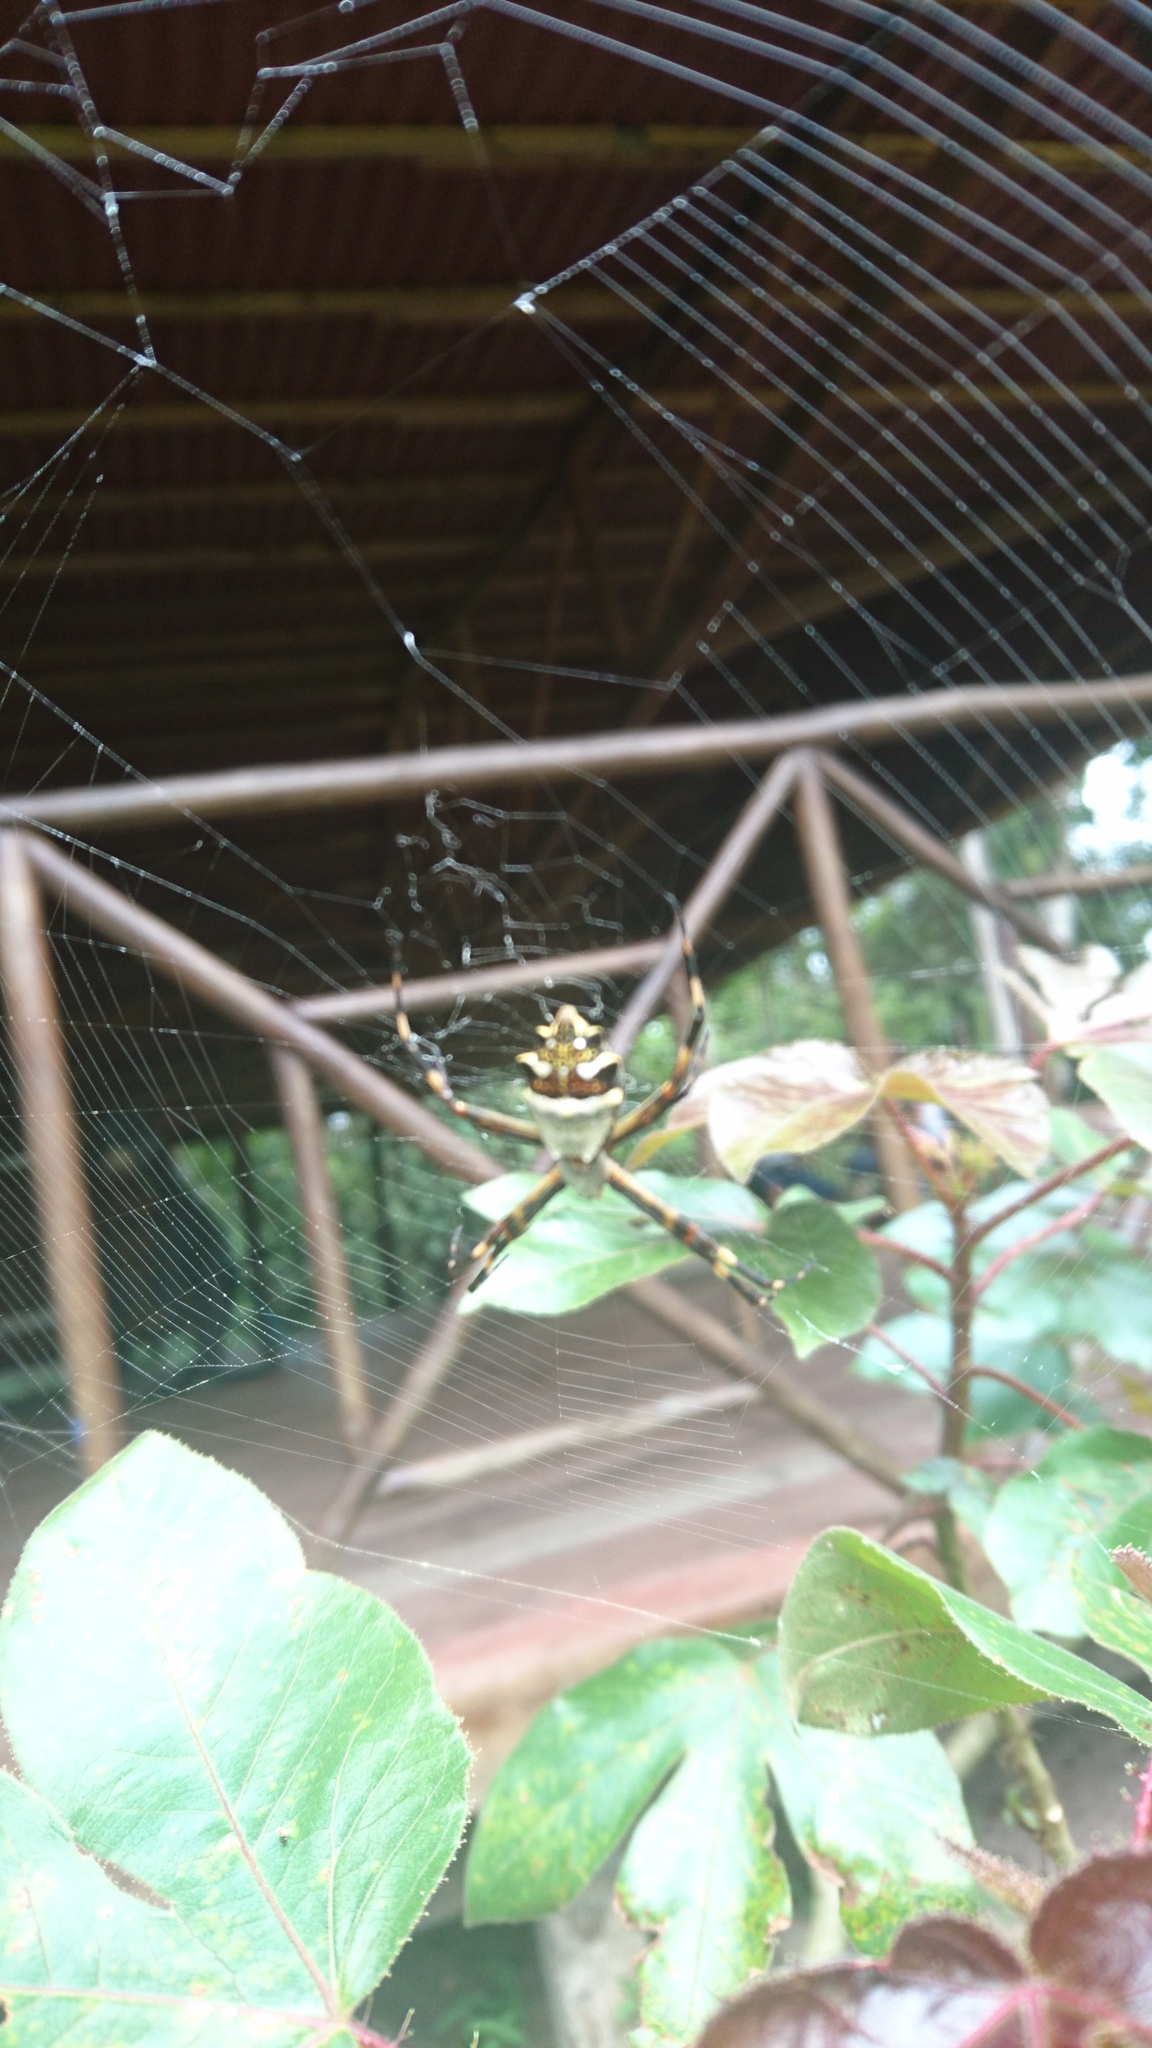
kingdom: Animalia
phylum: Arthropoda
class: Arachnida
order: Araneae
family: Araneidae
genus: Argiope
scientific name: Argiope argentata
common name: Orb weavers
